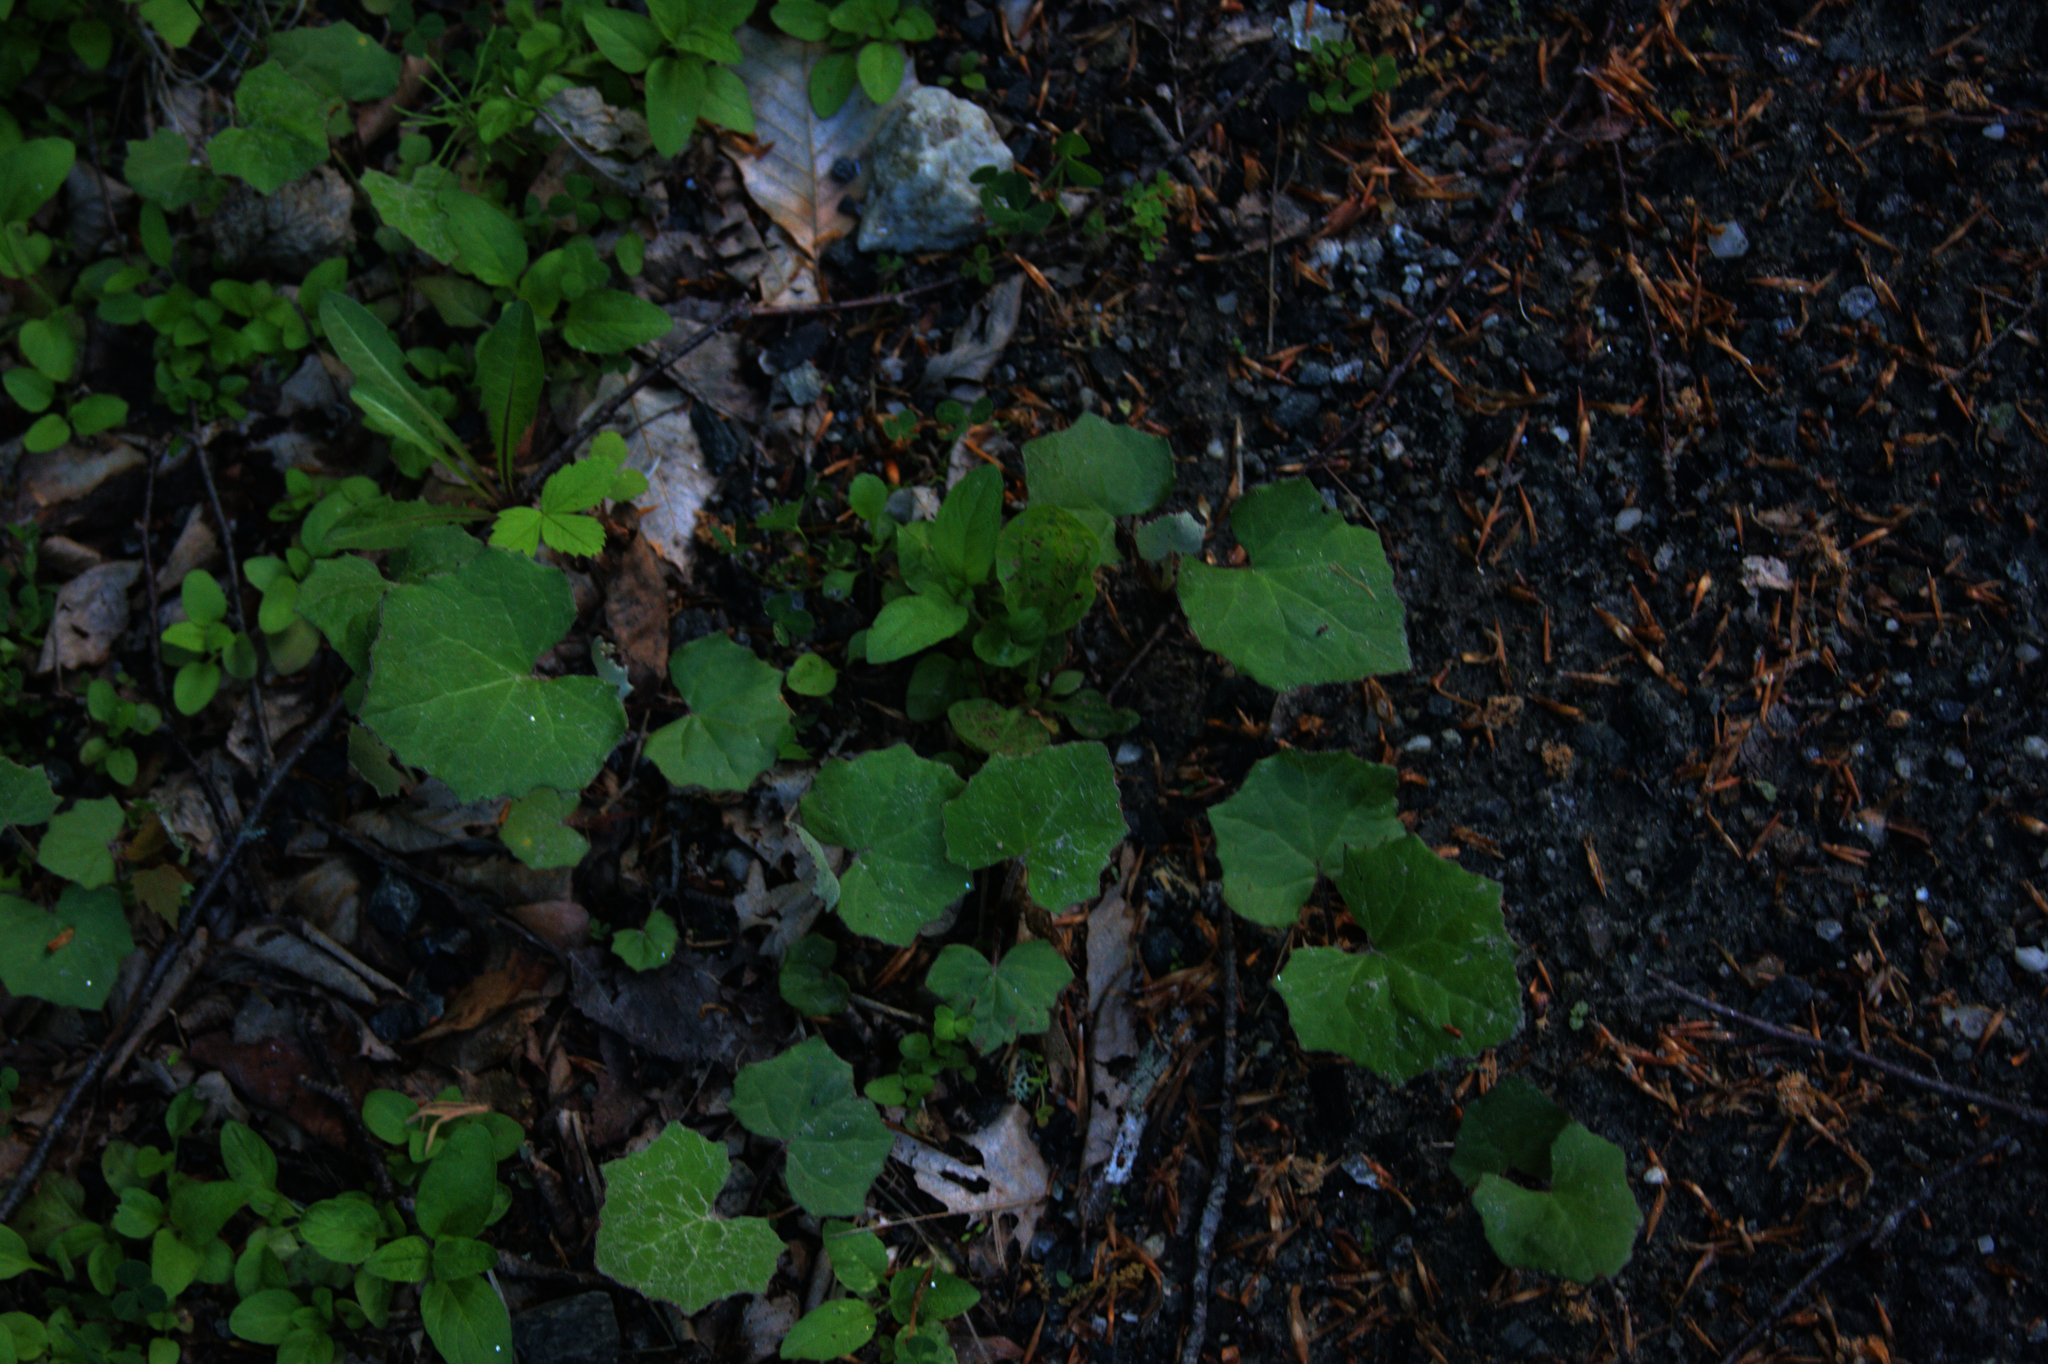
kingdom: Plantae
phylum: Tracheophyta
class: Magnoliopsida
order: Asterales
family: Asteraceae
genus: Tussilago
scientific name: Tussilago farfara
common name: Coltsfoot
